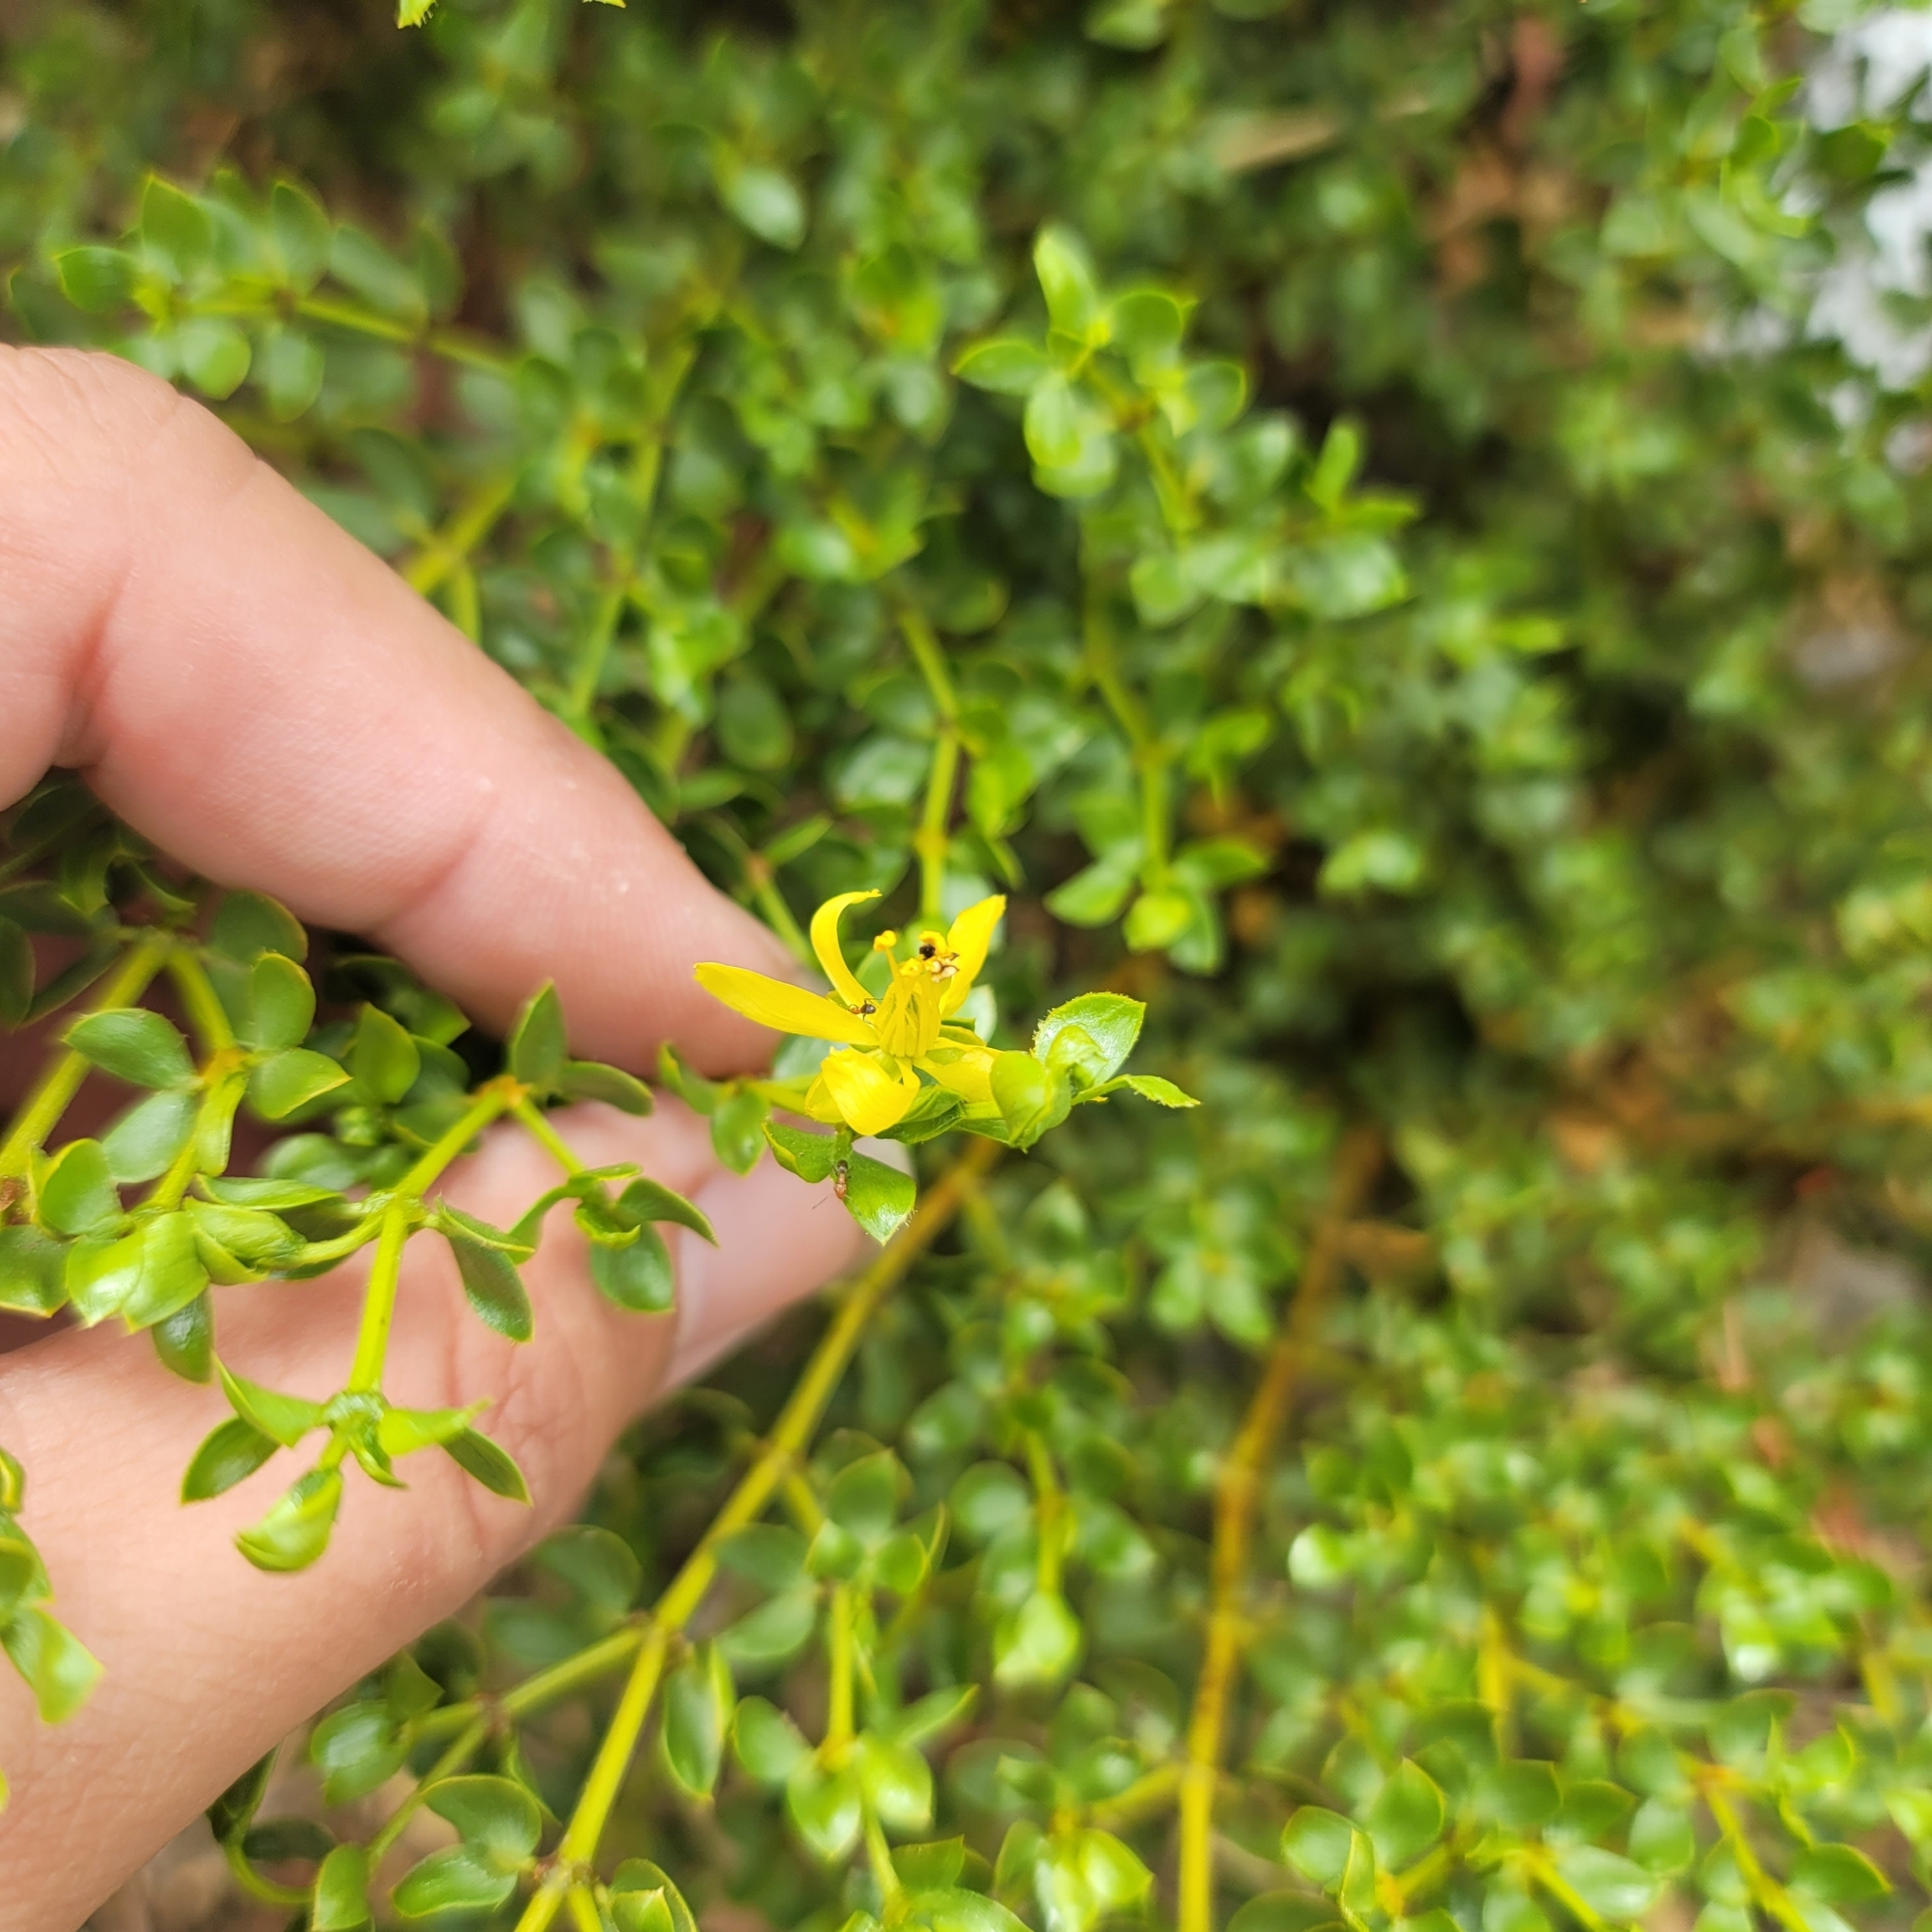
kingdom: Plantae
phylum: Tracheophyta
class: Magnoliopsida
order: Zygophyllales
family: Zygophyllaceae
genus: Larrea
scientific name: Larrea tridentata
